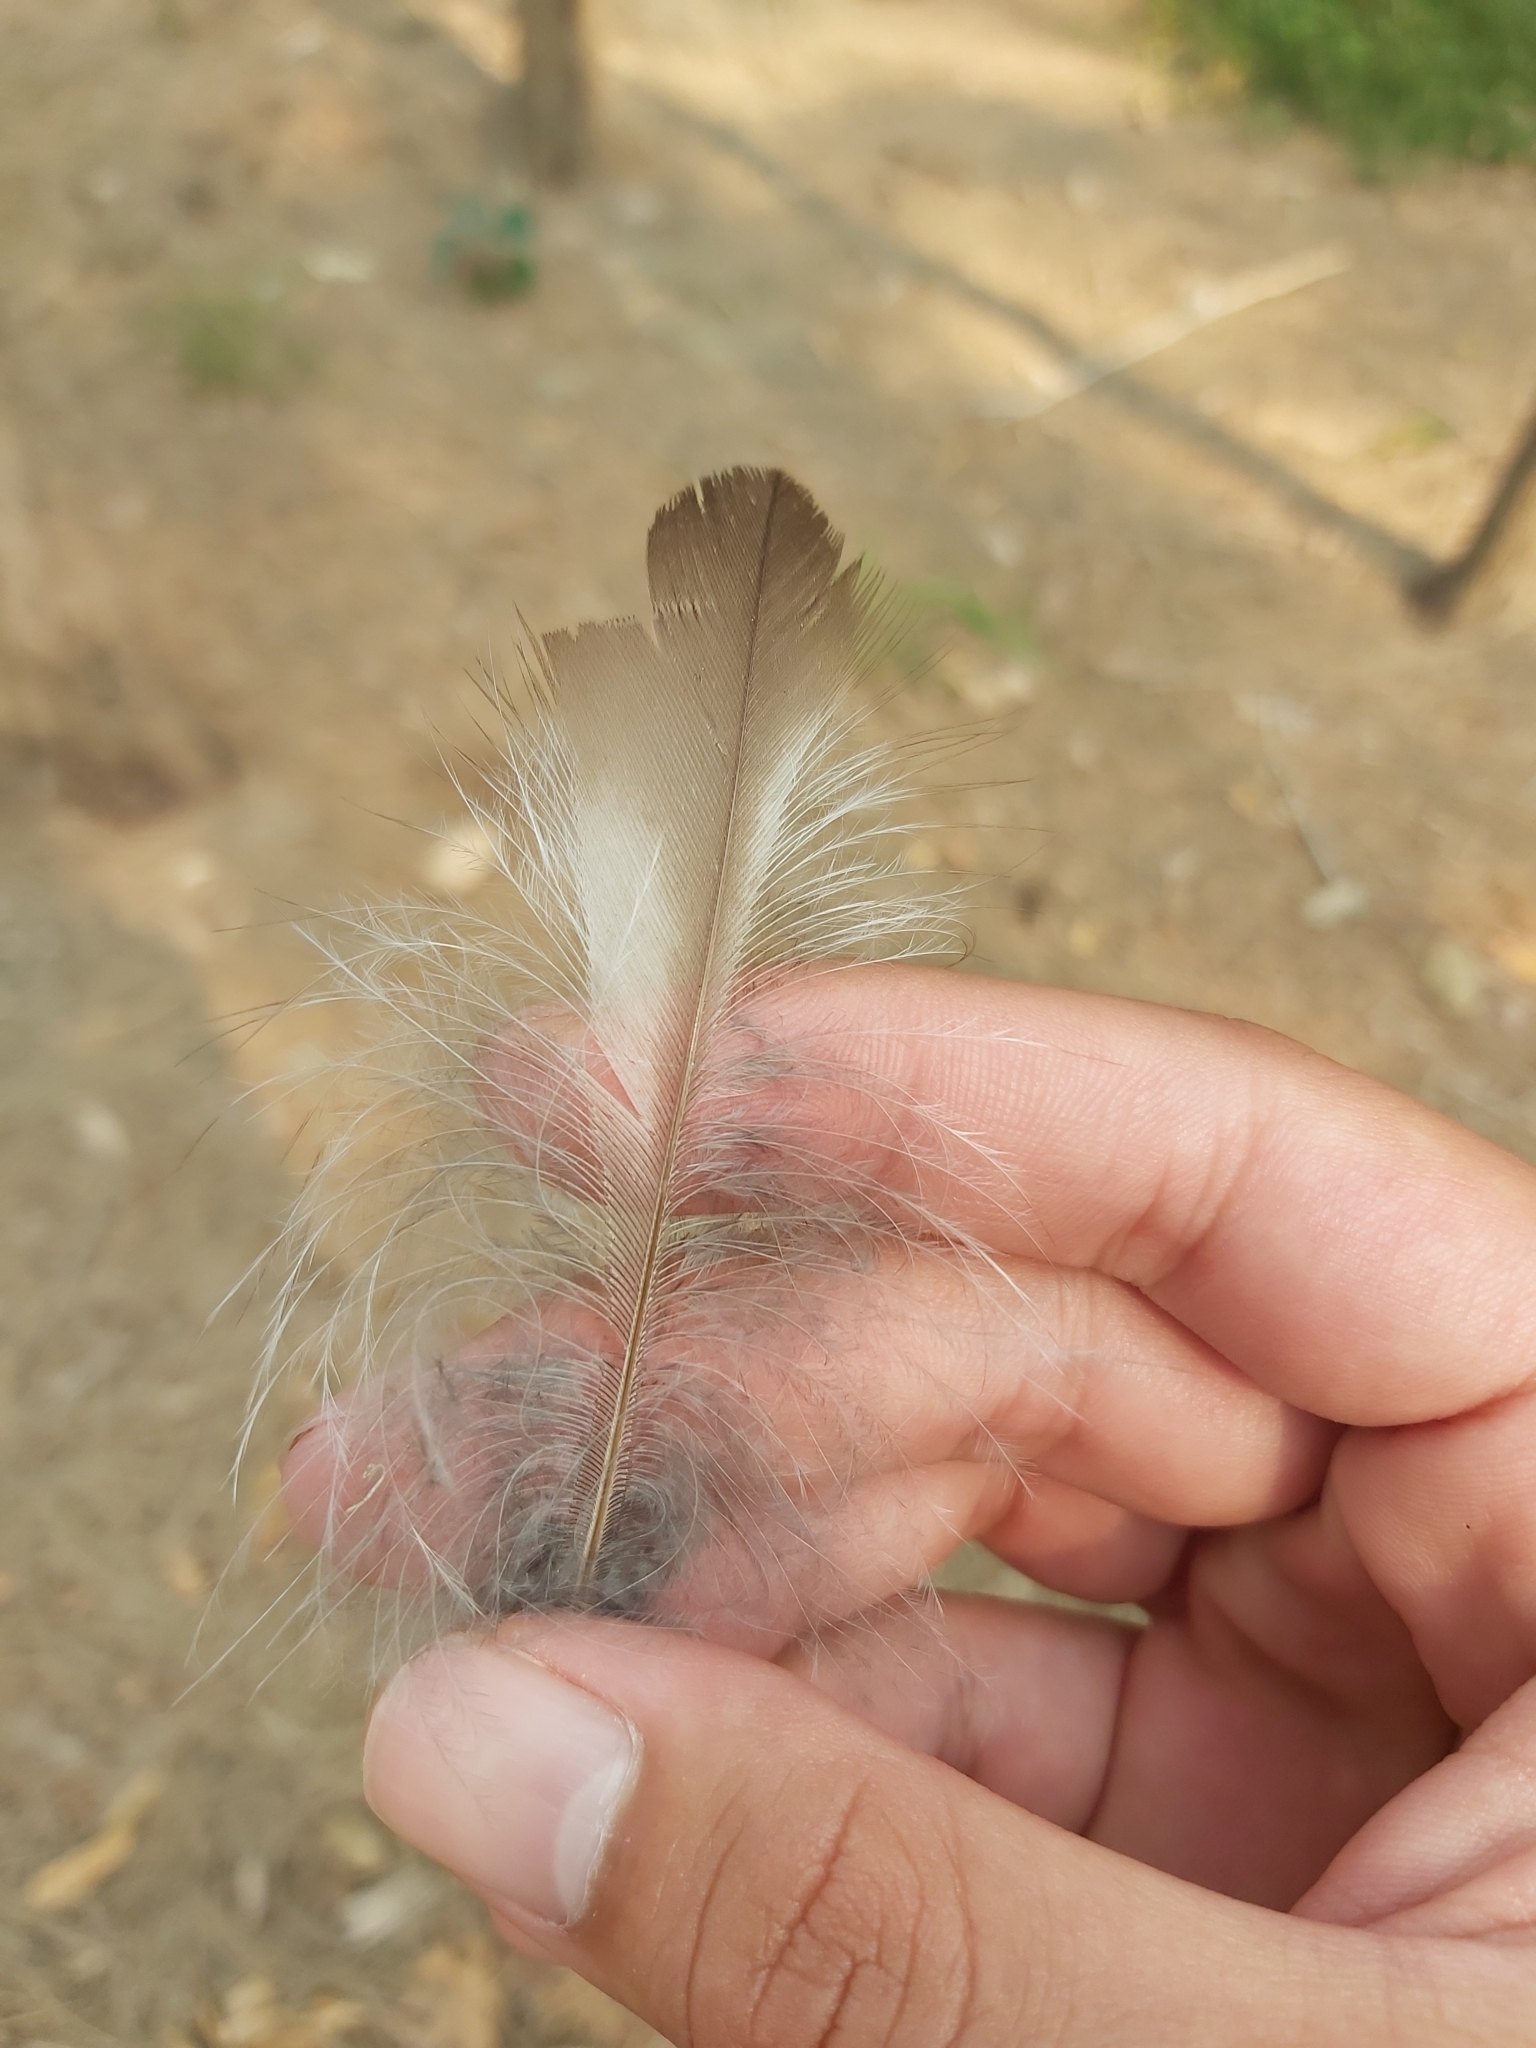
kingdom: Animalia
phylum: Chordata
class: Aves
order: Coraciiformes
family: Alcedinidae
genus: Dacelo
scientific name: Dacelo novaeguineae
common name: Laughing kookaburra
